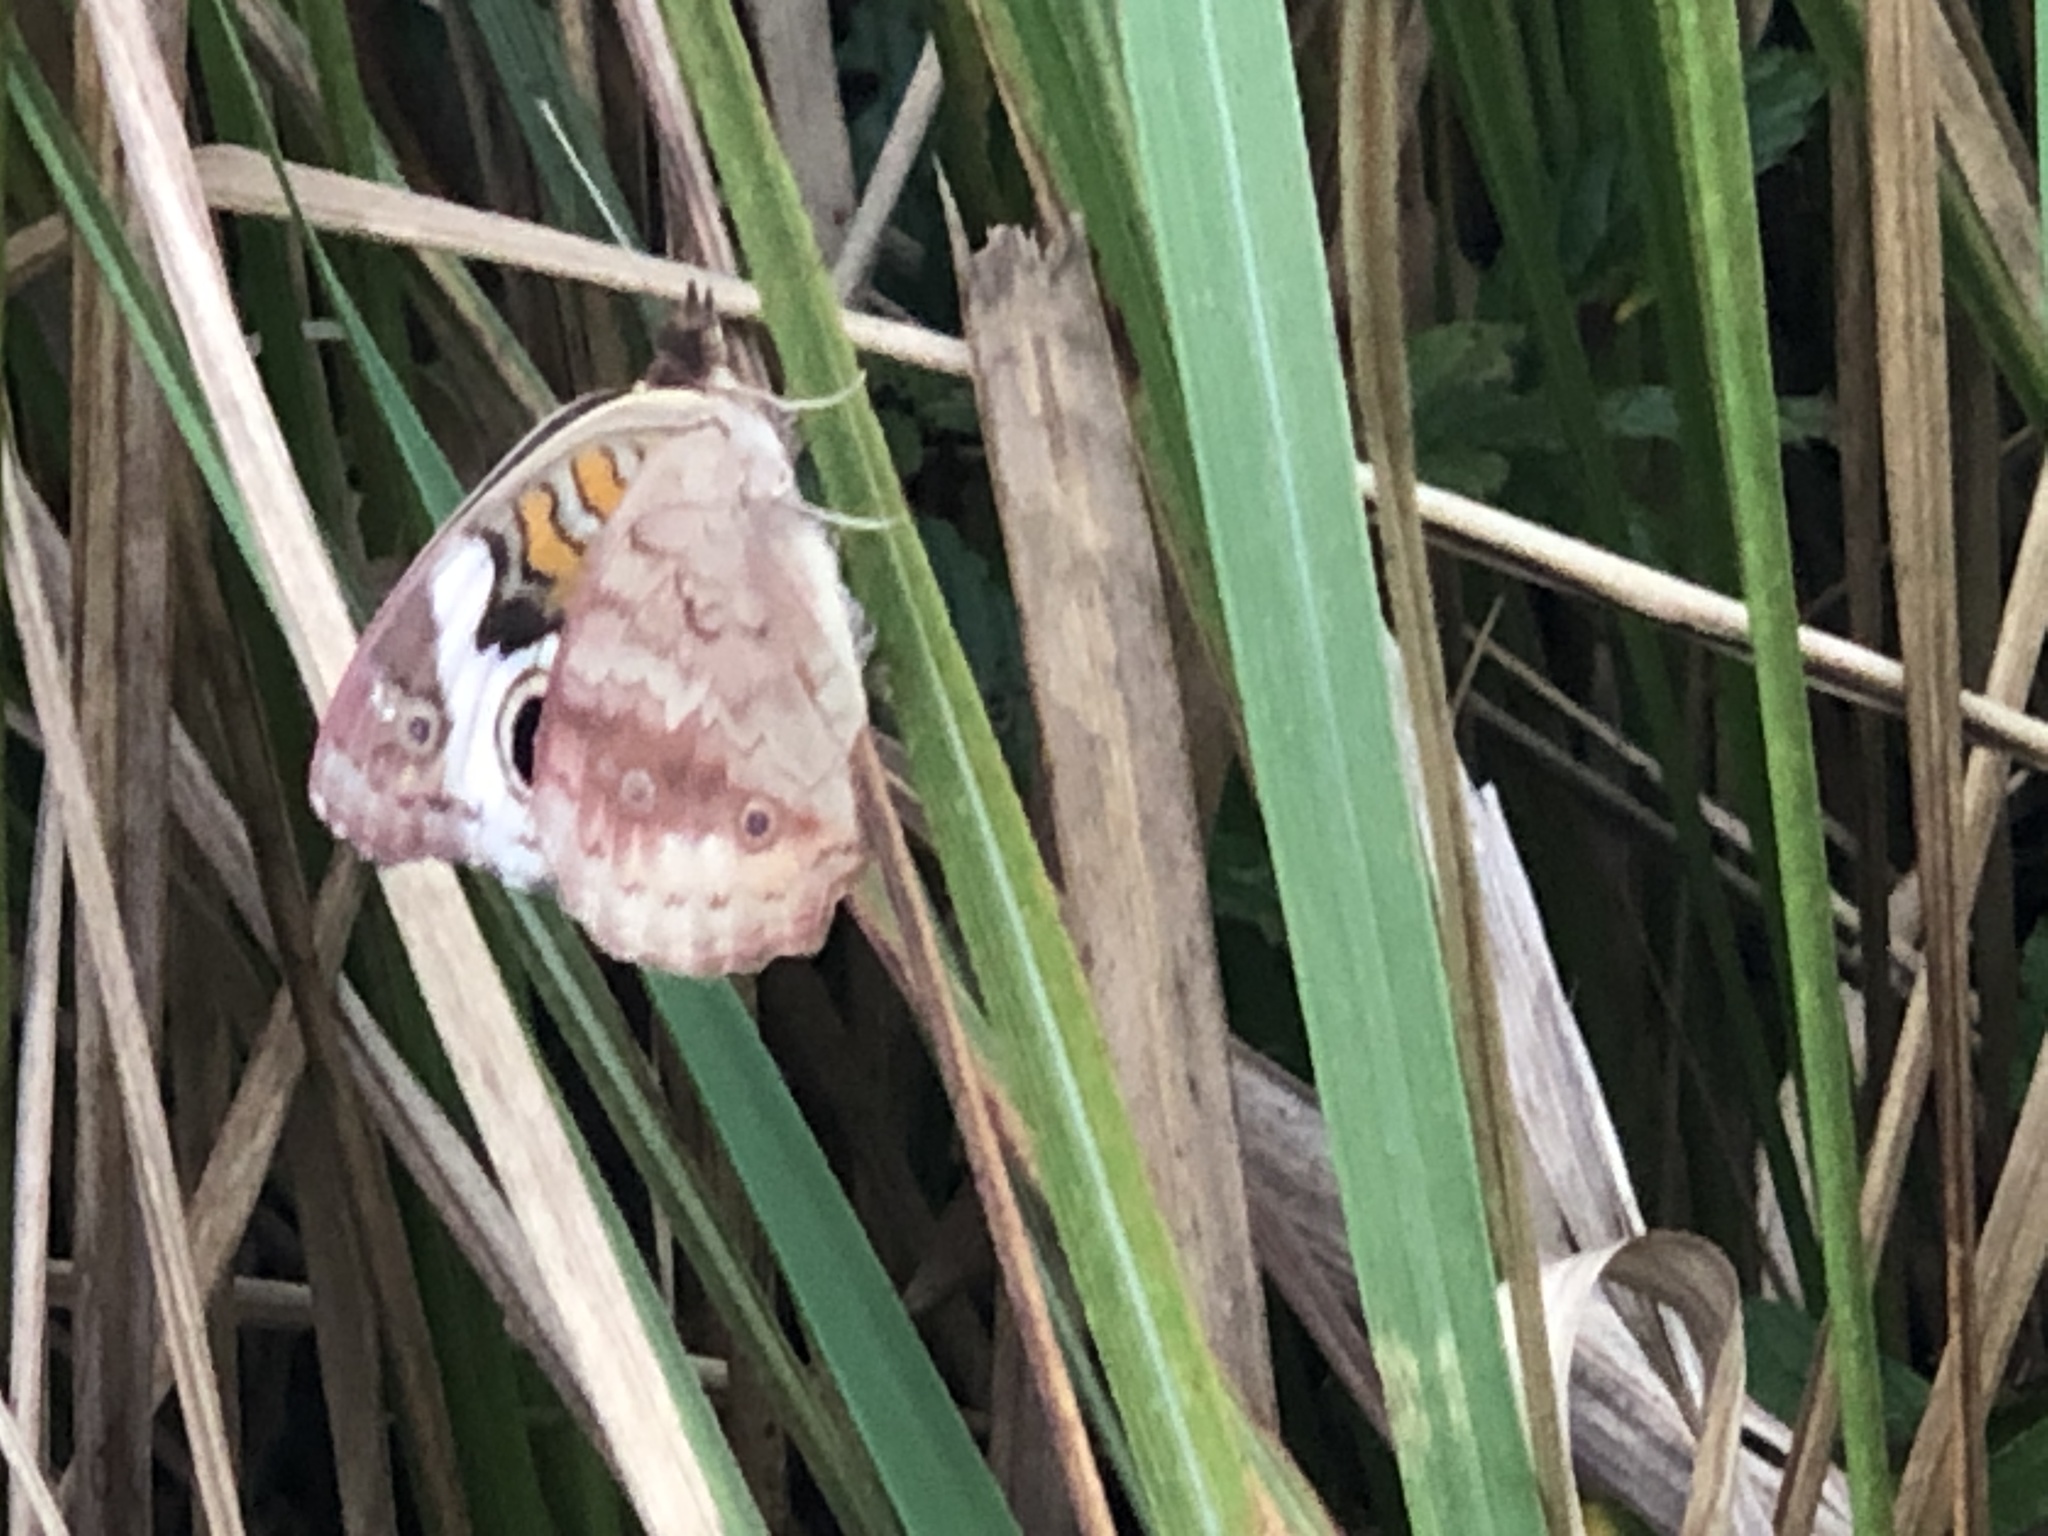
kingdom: Animalia
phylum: Arthropoda
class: Insecta
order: Lepidoptera
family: Nymphalidae
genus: Junonia
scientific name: Junonia coenia
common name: Common buckeye
